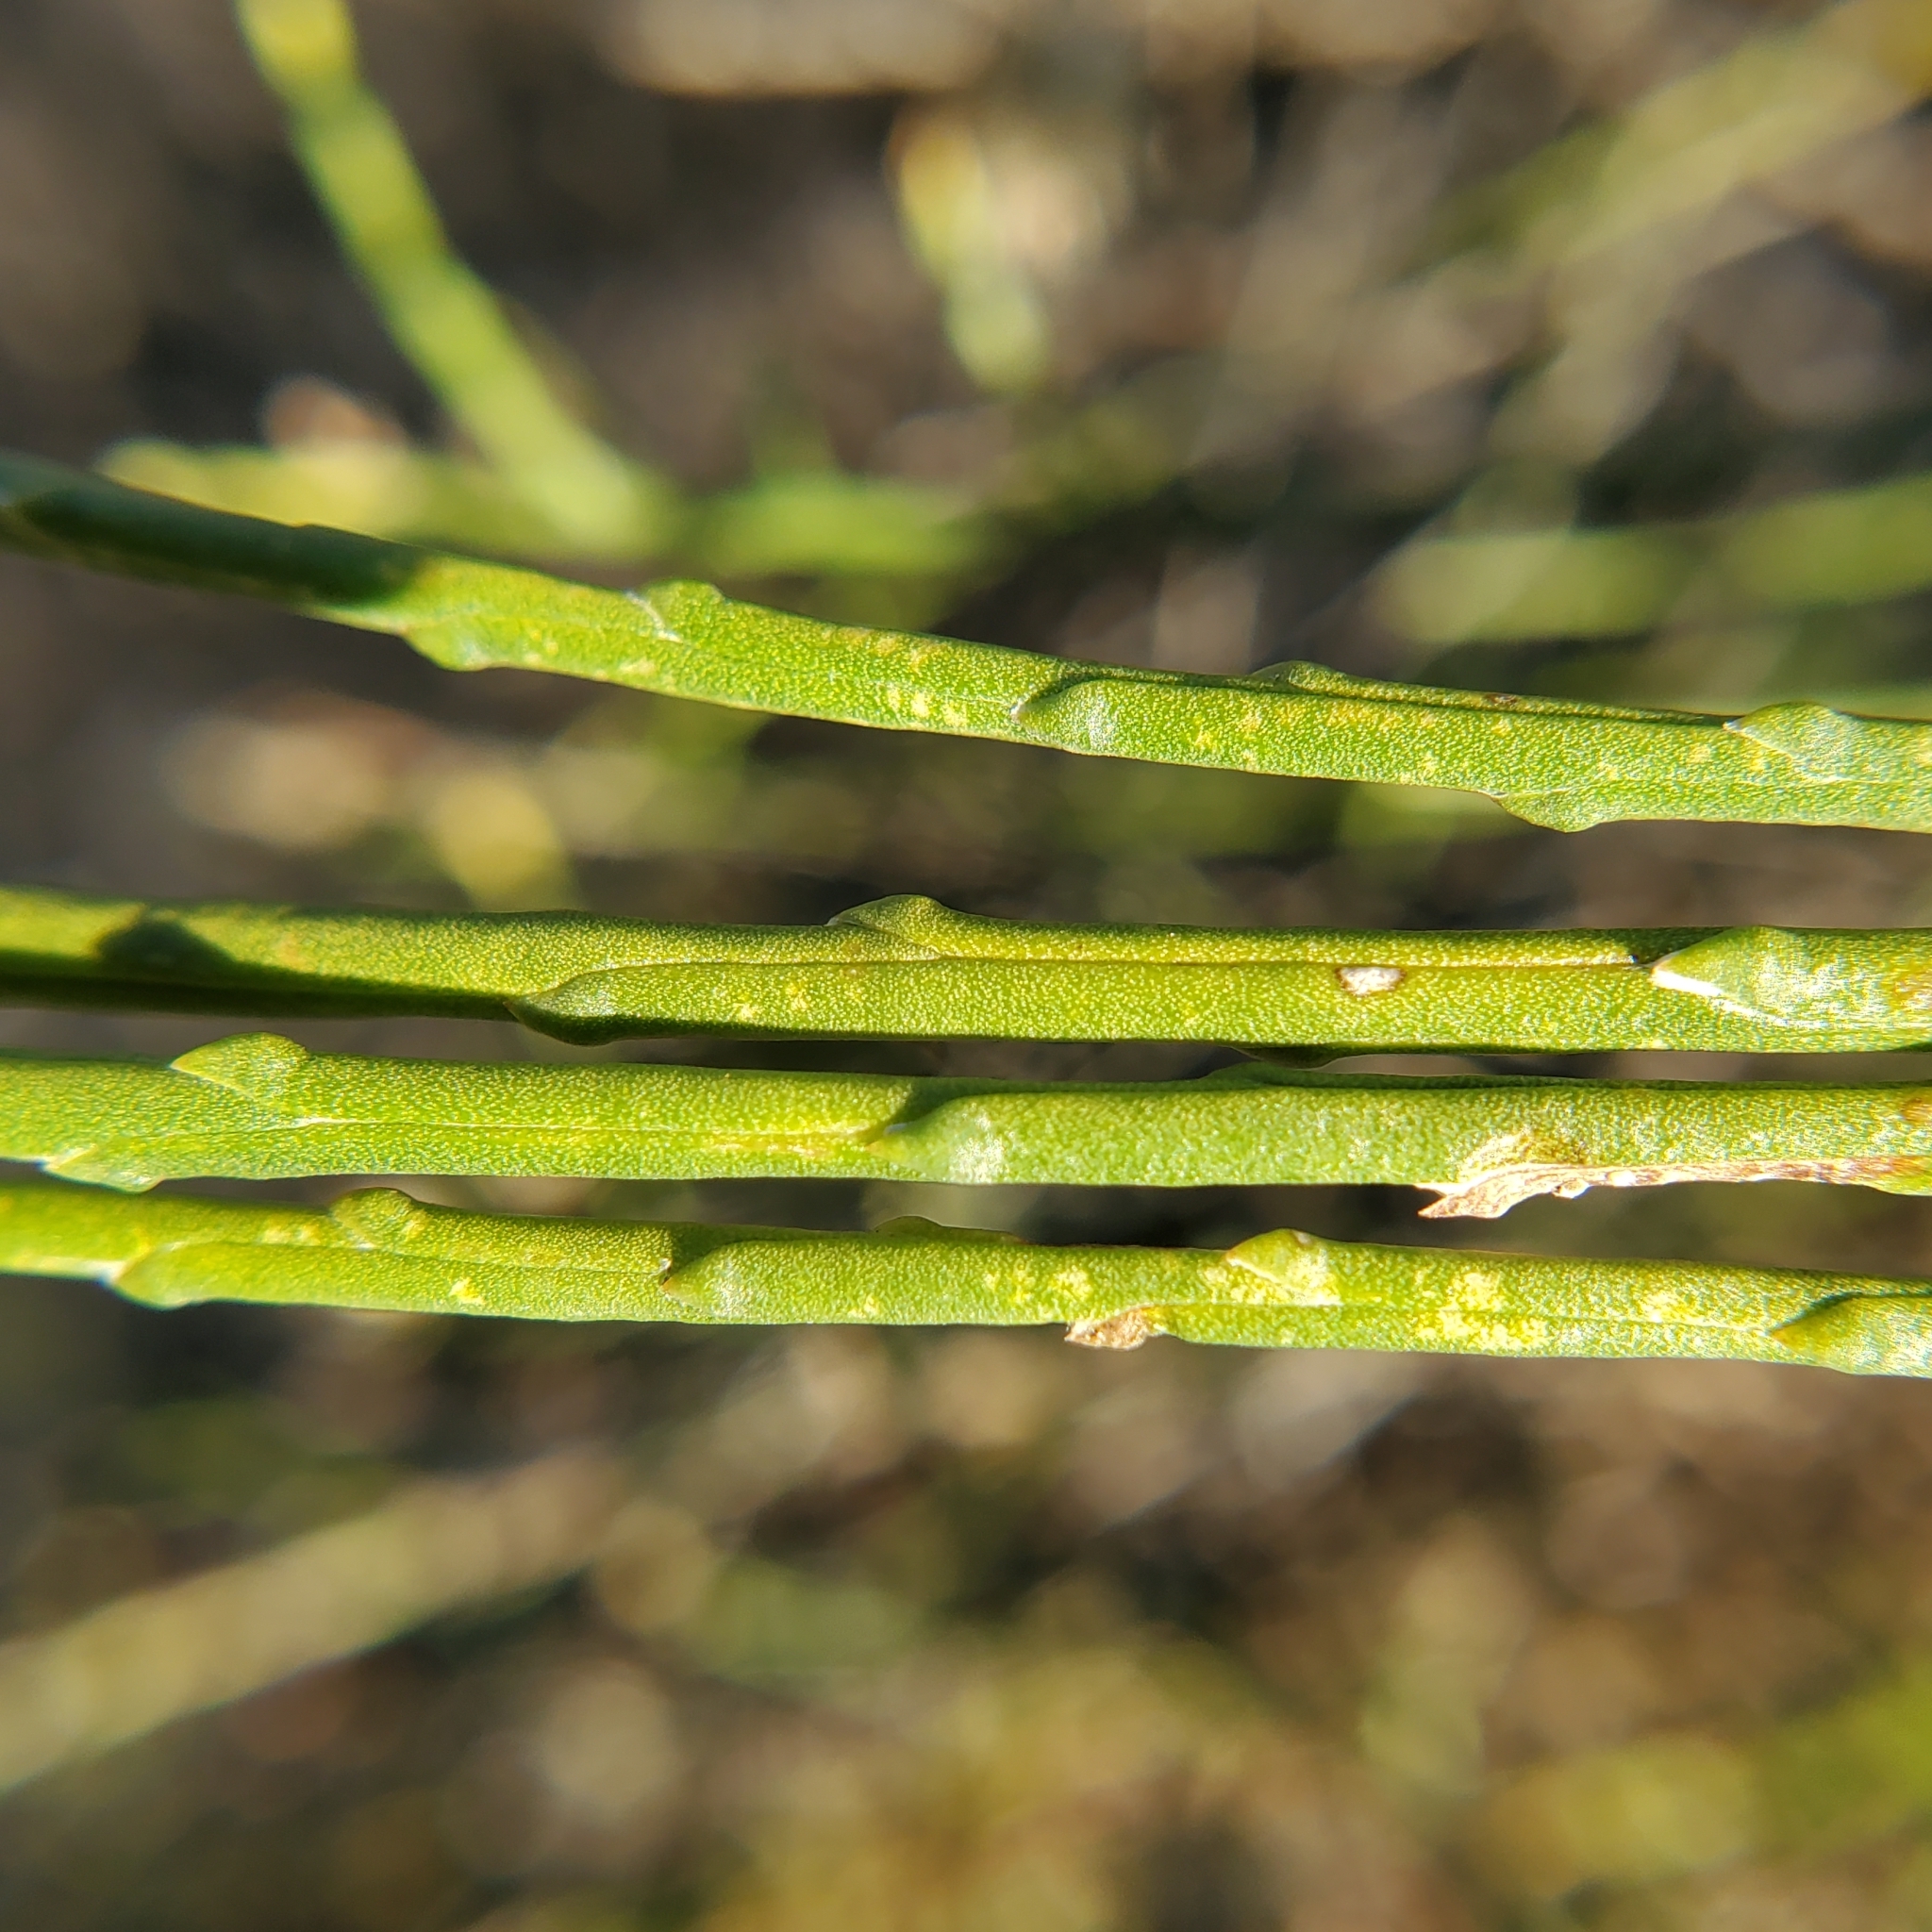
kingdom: Plantae
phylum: Tracheophyta
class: Magnoliopsida
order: Asterales
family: Asteraceae
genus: Lepidospartum
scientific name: Lepidospartum squamatum
